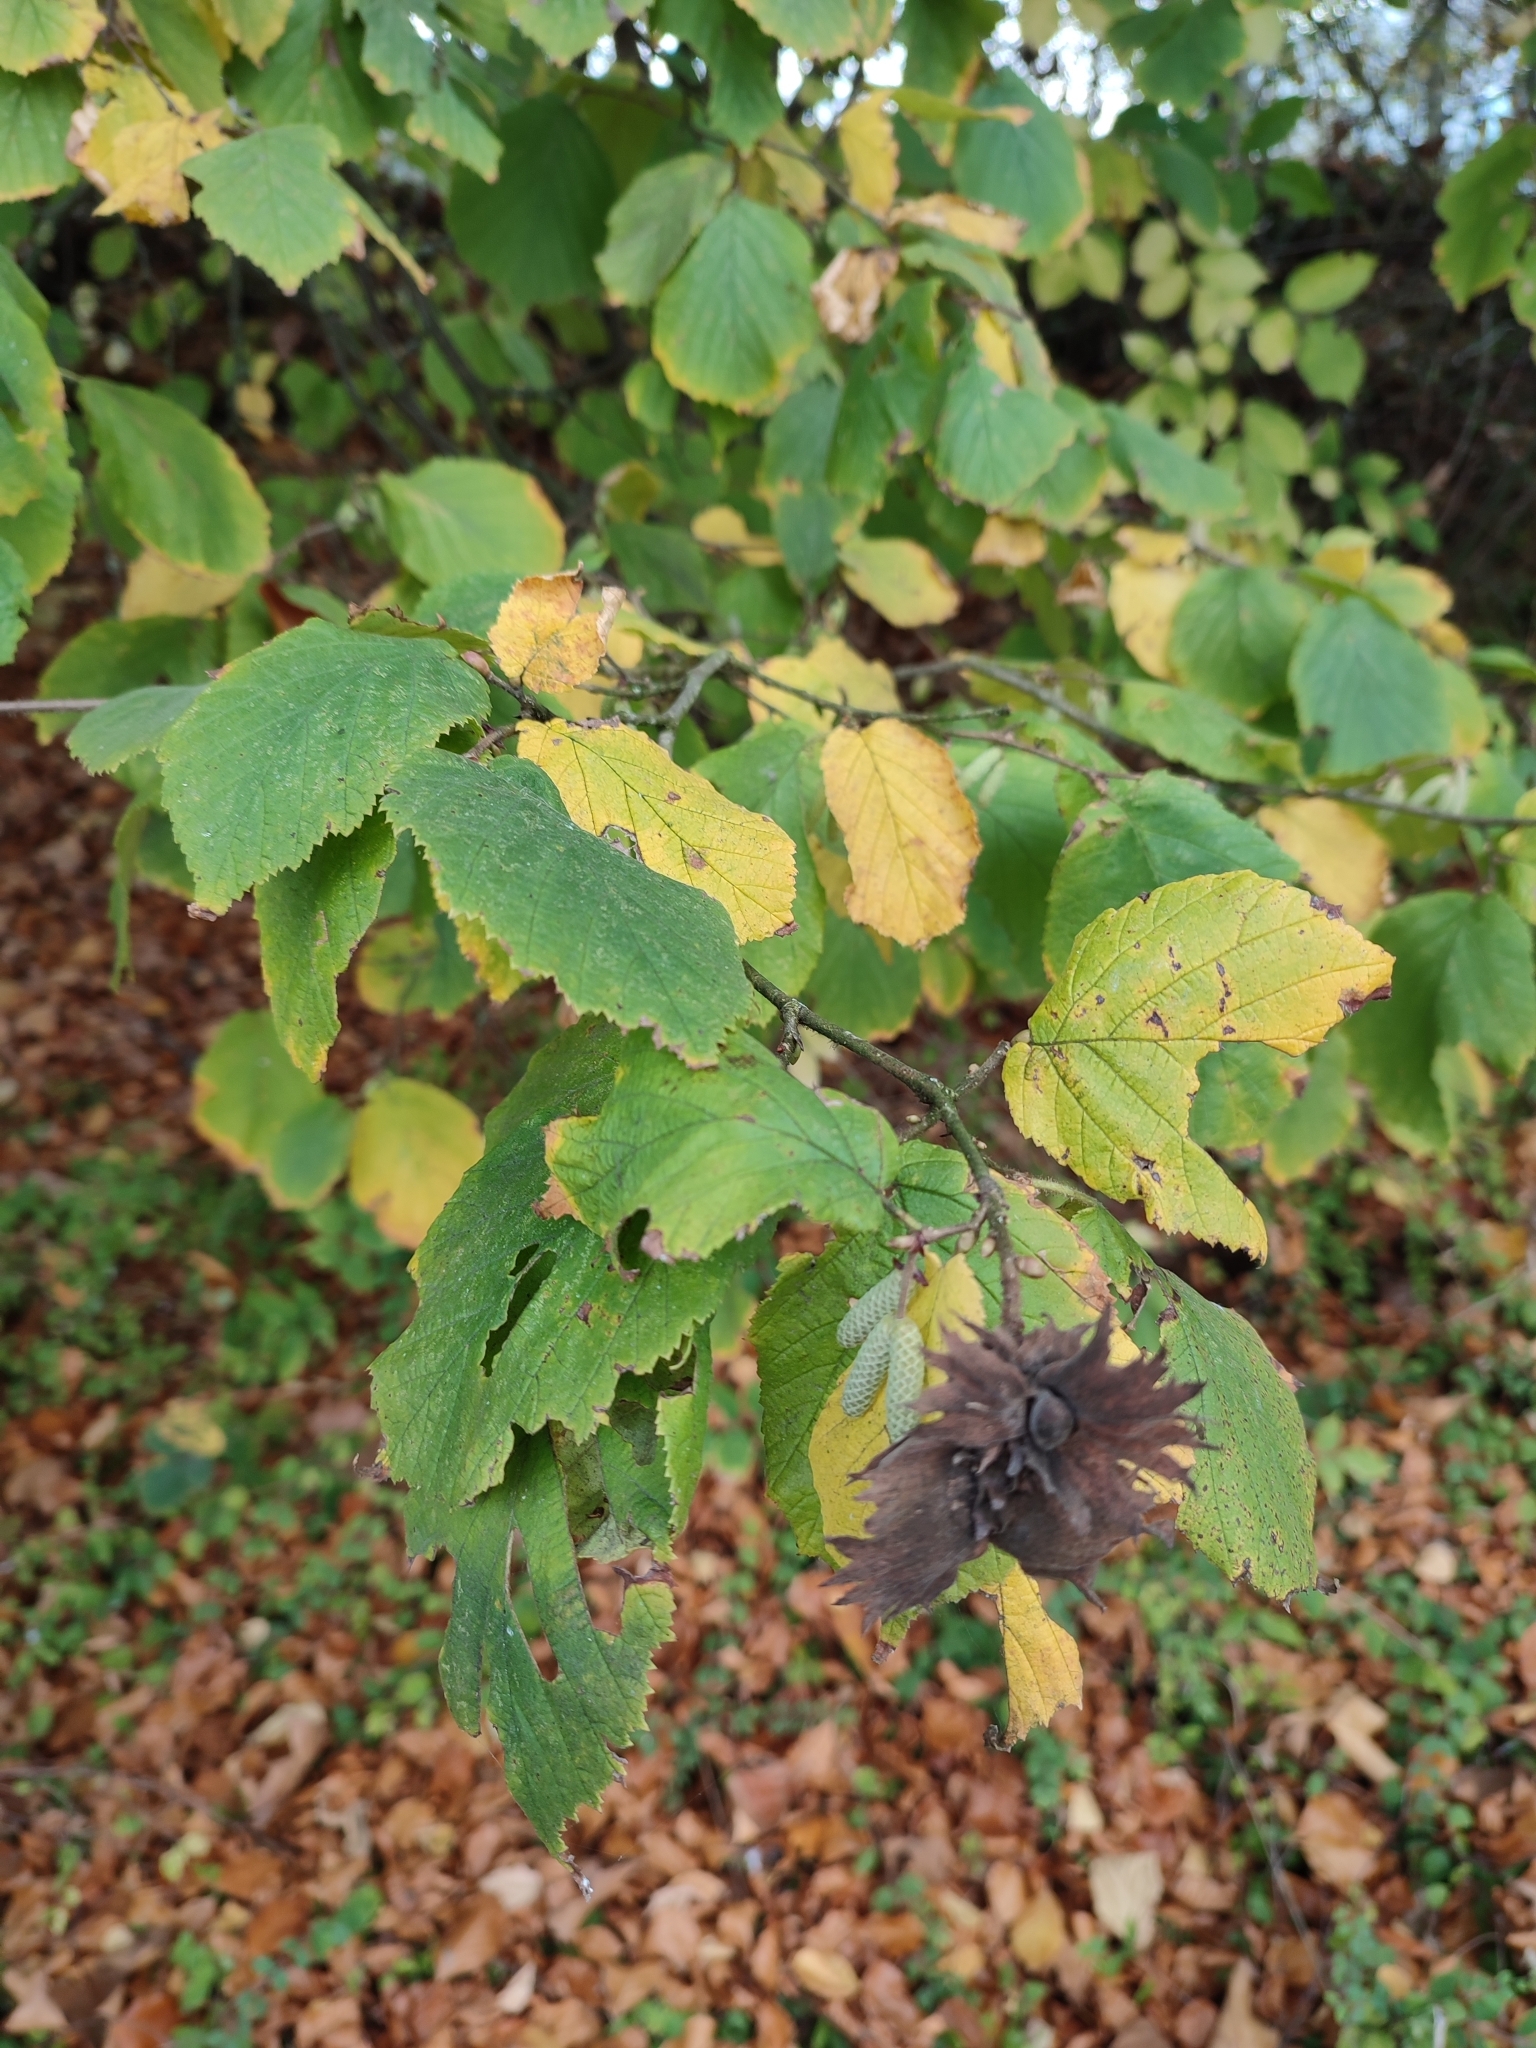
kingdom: Plantae
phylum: Tracheophyta
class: Magnoliopsida
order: Fagales
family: Betulaceae
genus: Corylus
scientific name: Corylus avellana
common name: European hazel
